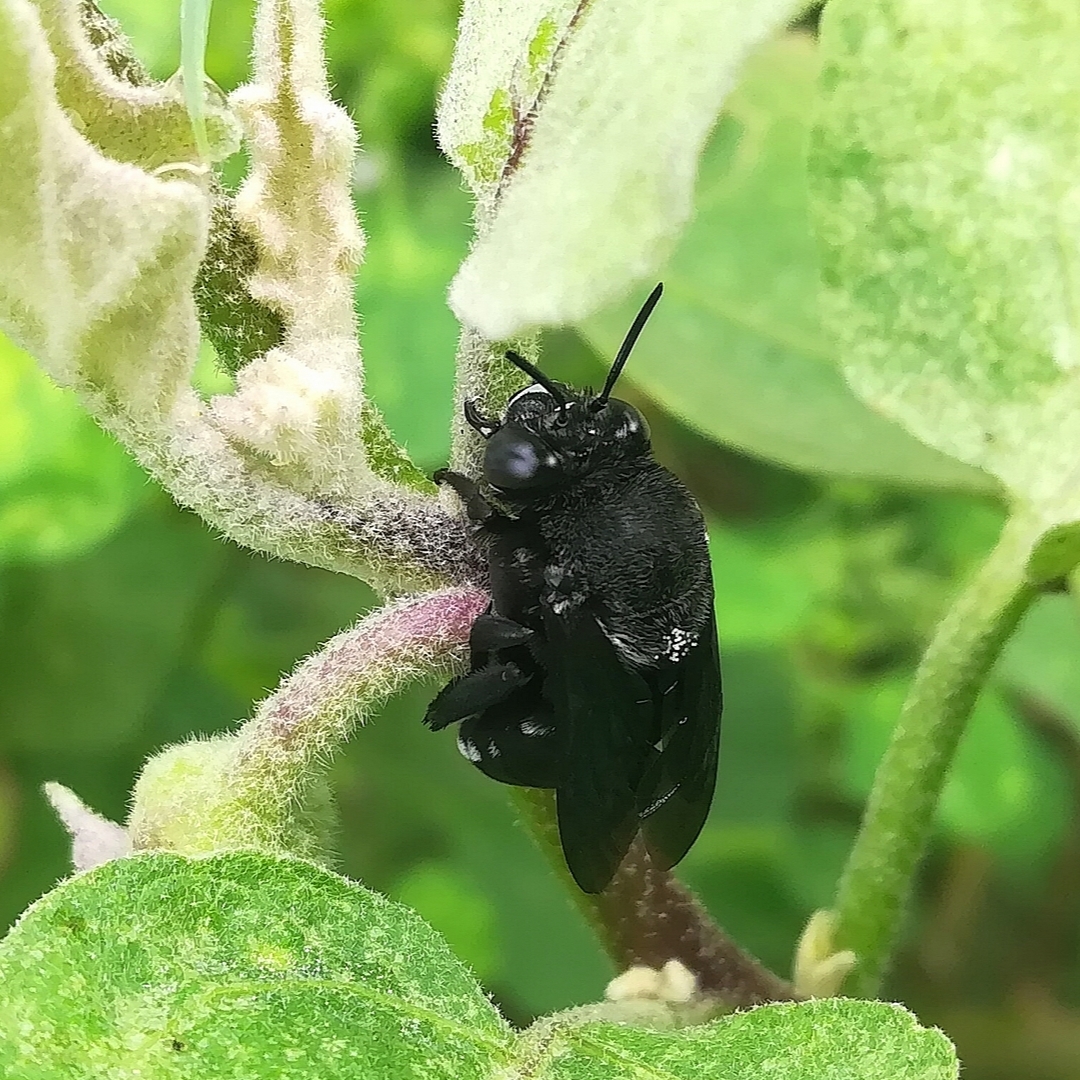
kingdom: Animalia
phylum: Arthropoda
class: Insecta
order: Hymenoptera
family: Apidae
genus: Amegilla
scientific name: Amegilla violacea
